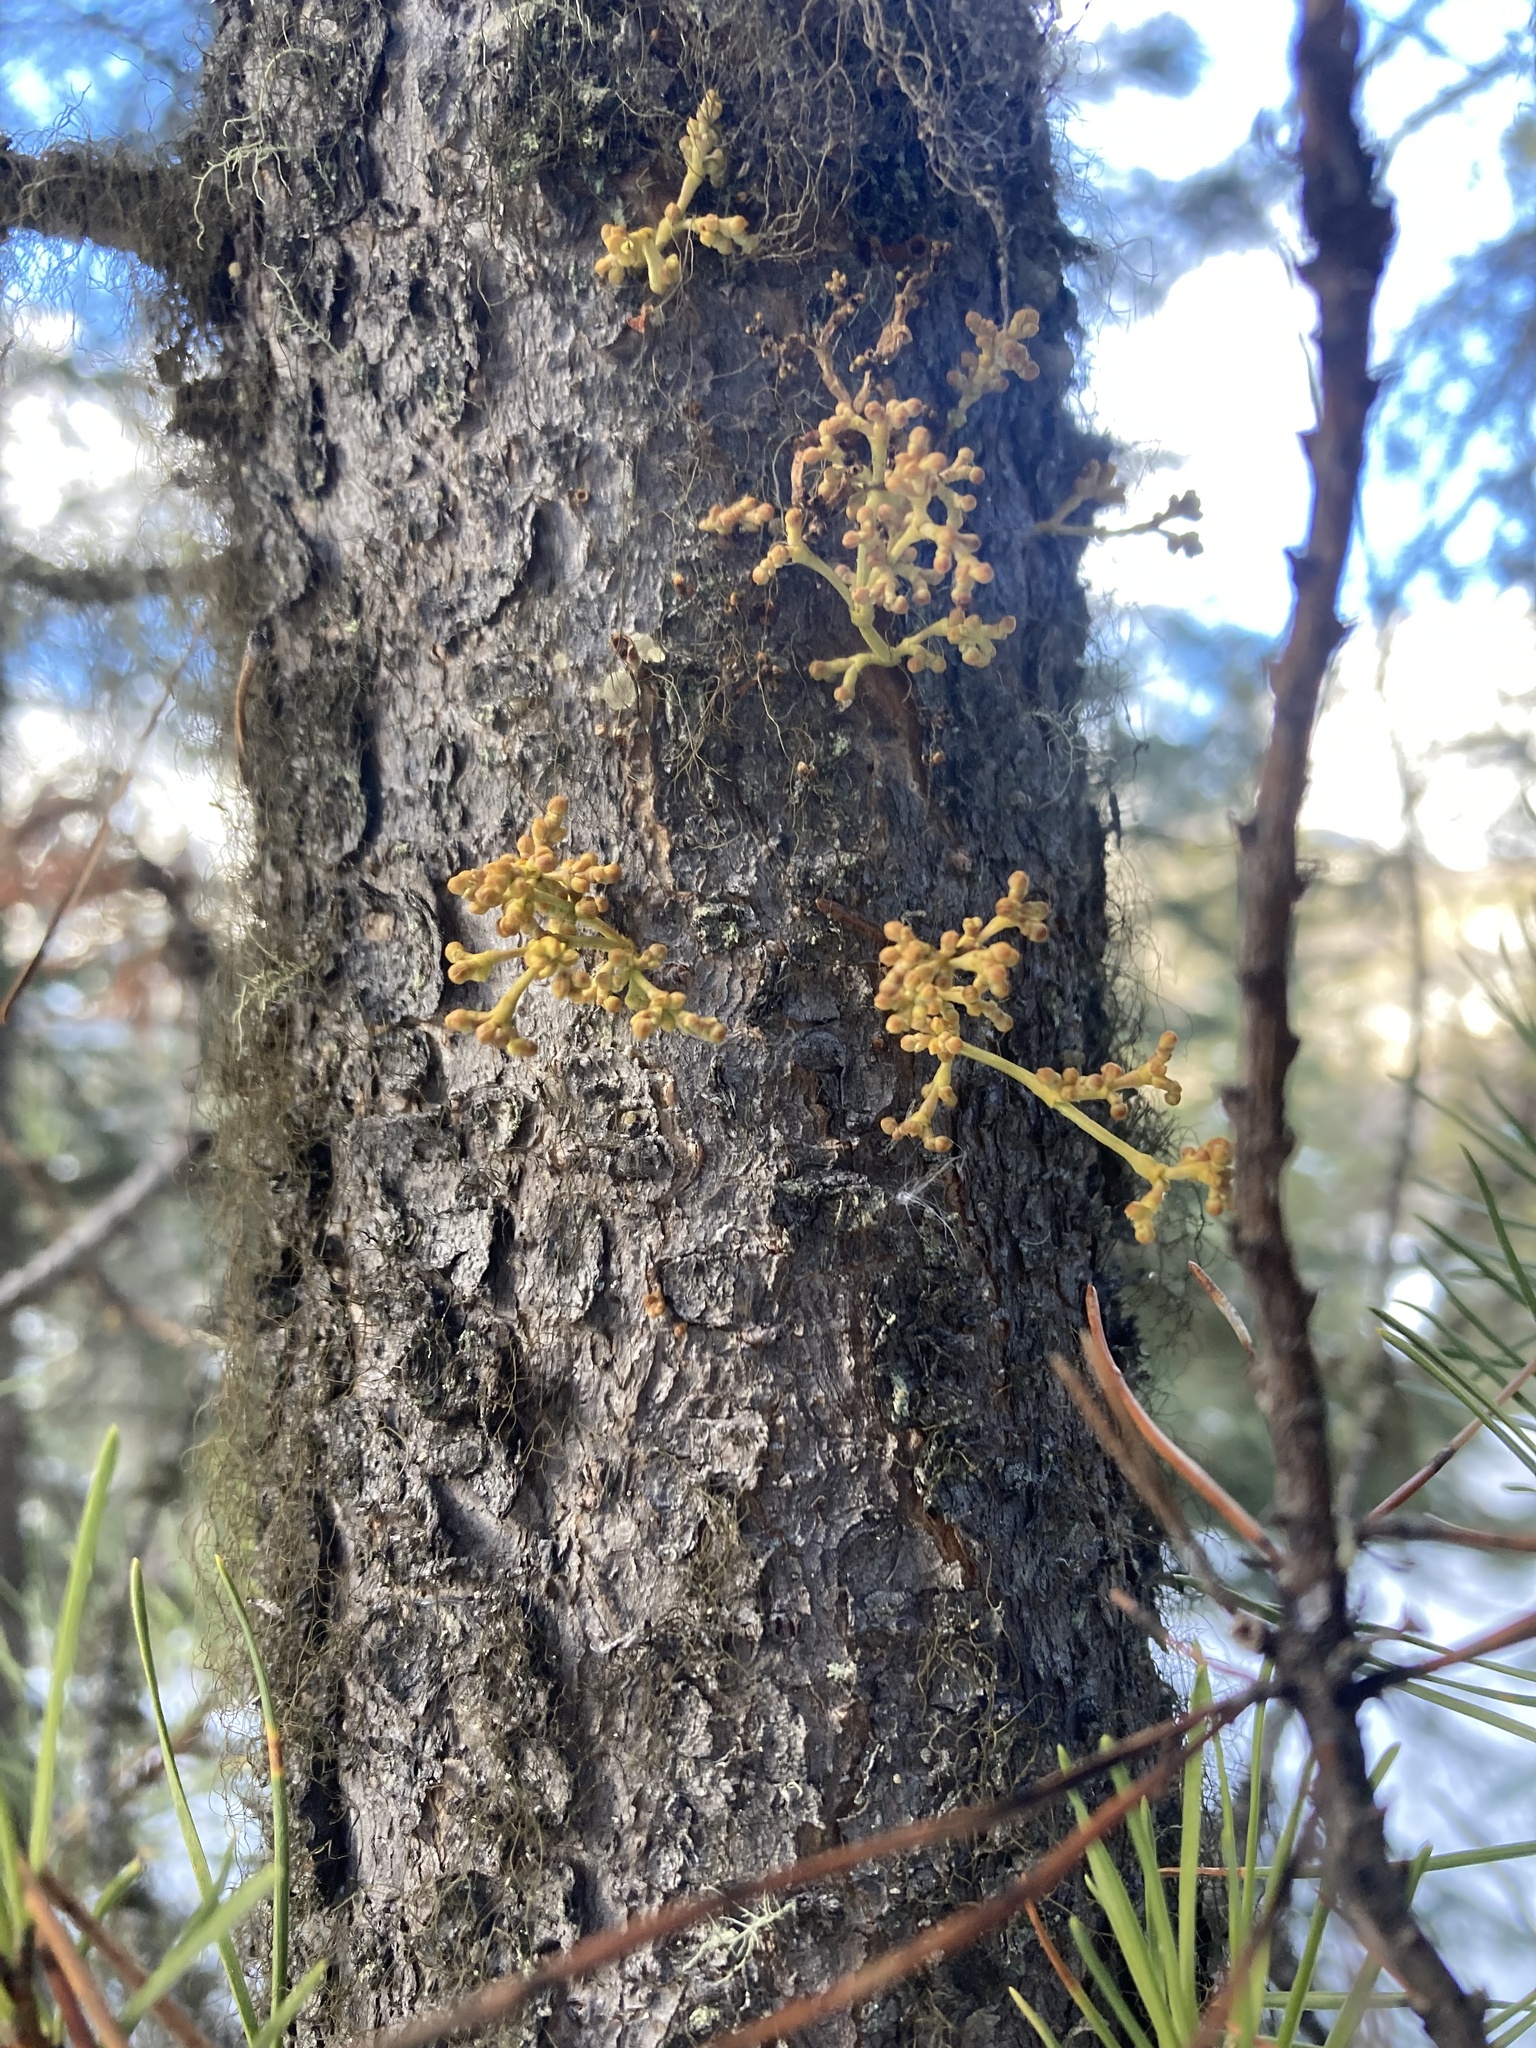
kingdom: Plantae
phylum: Tracheophyta
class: Magnoliopsida
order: Santalales
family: Viscaceae
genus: Arceuthobium
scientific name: Arceuthobium americanum
